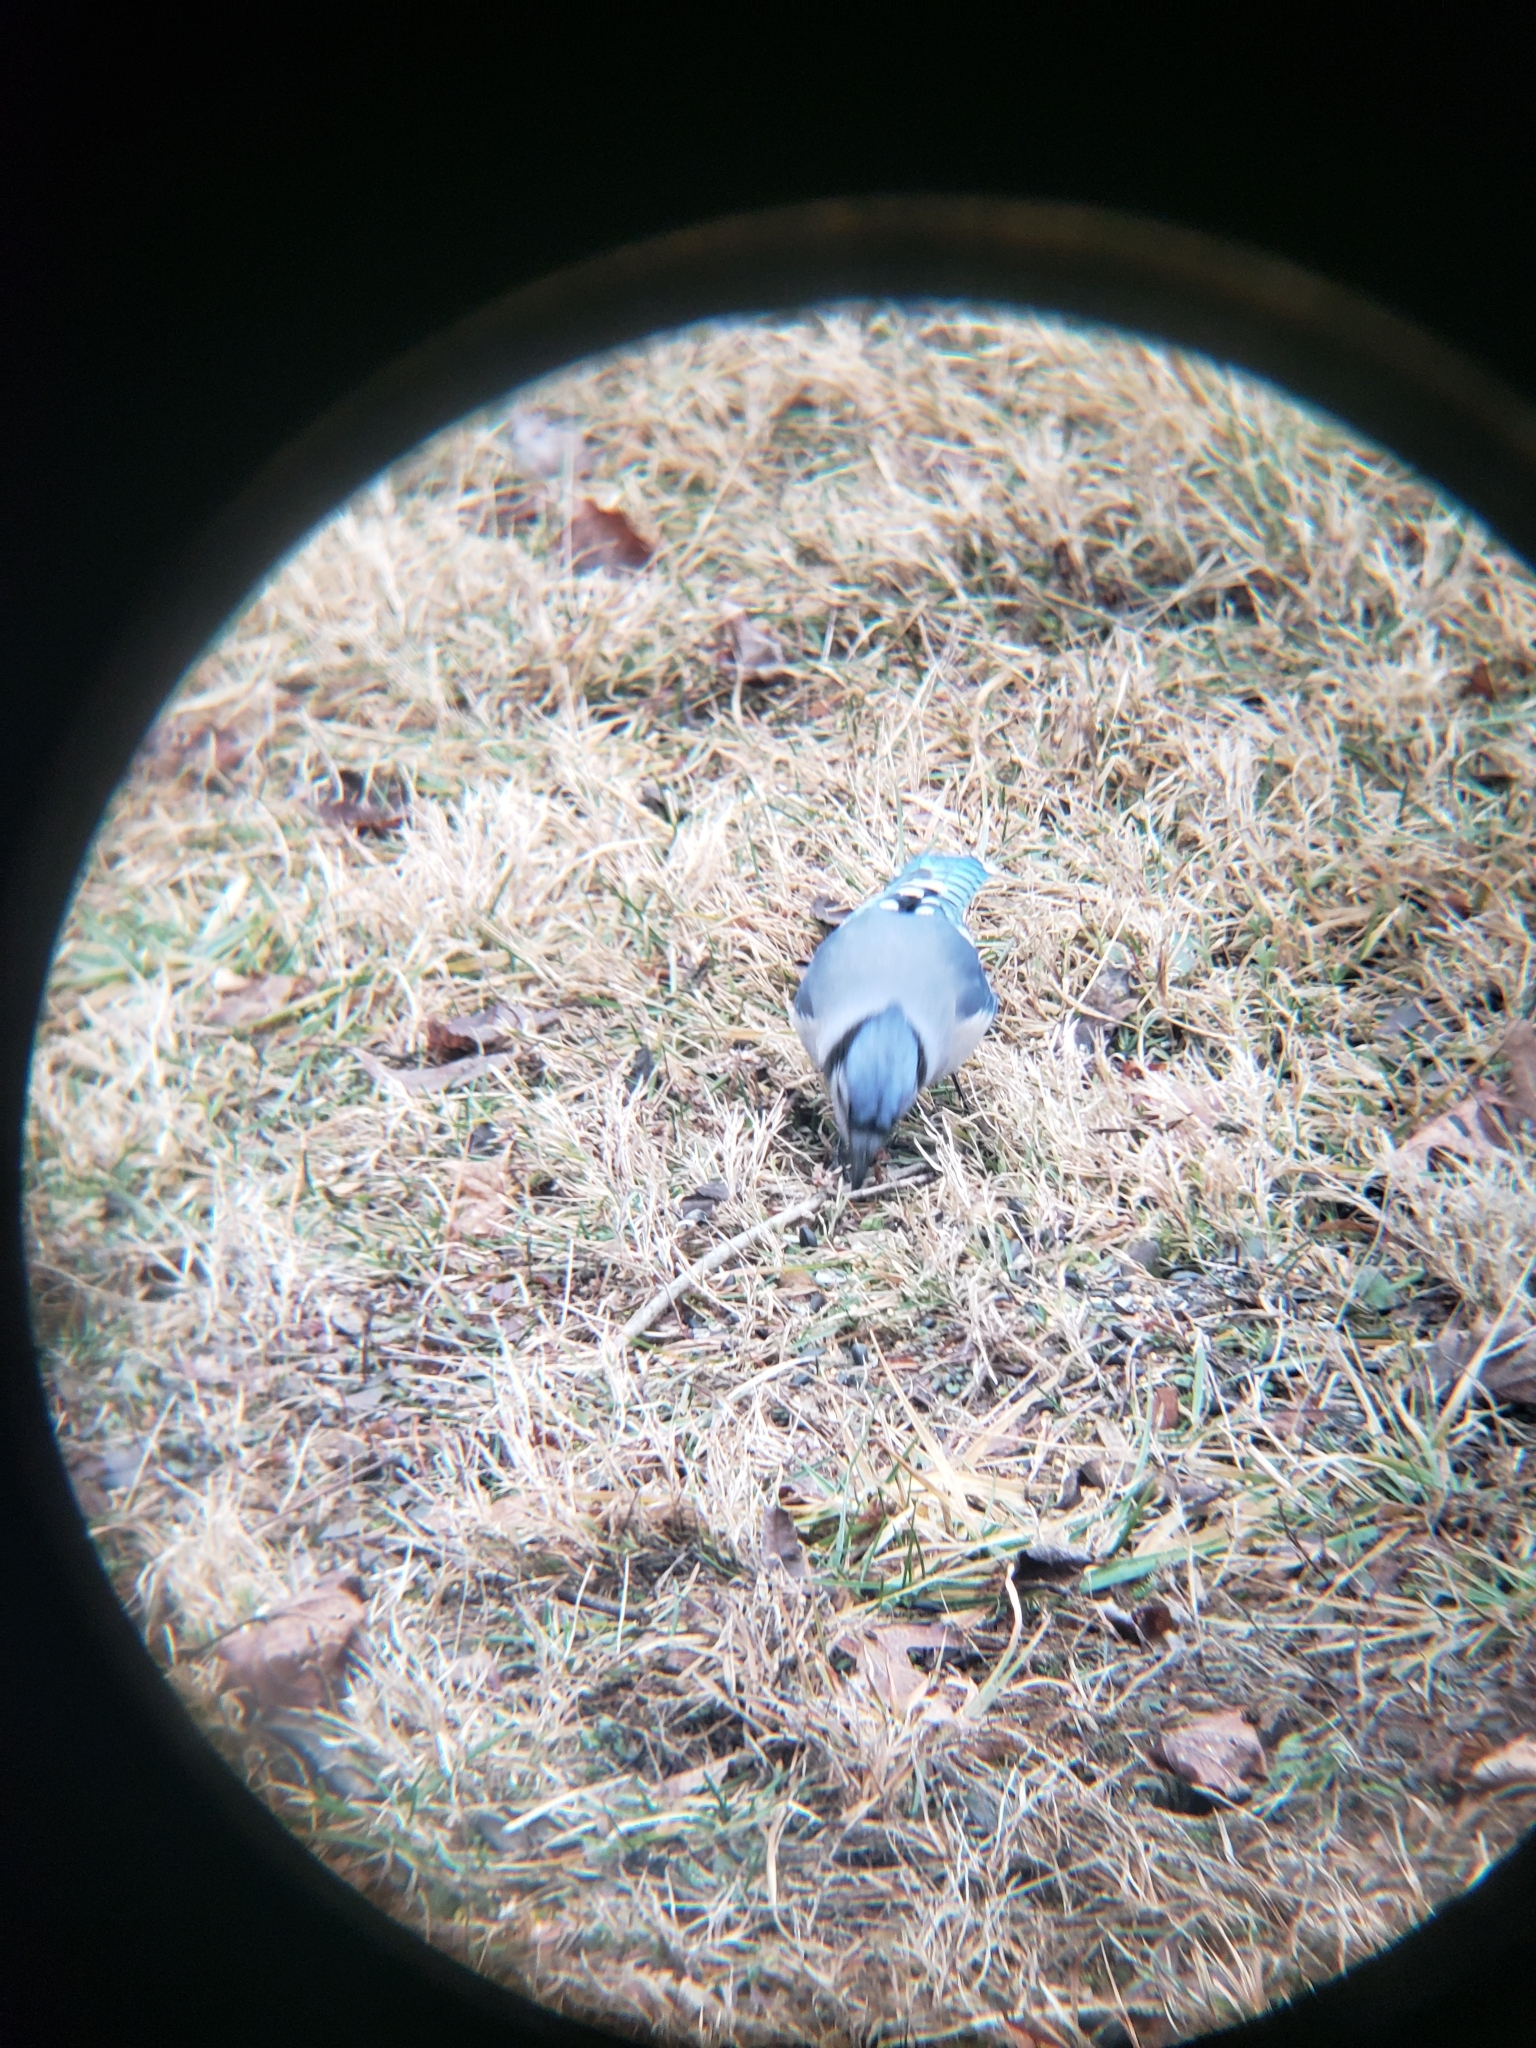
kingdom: Animalia
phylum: Chordata
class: Aves
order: Passeriformes
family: Corvidae
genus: Cyanocitta
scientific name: Cyanocitta cristata
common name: Blue jay
